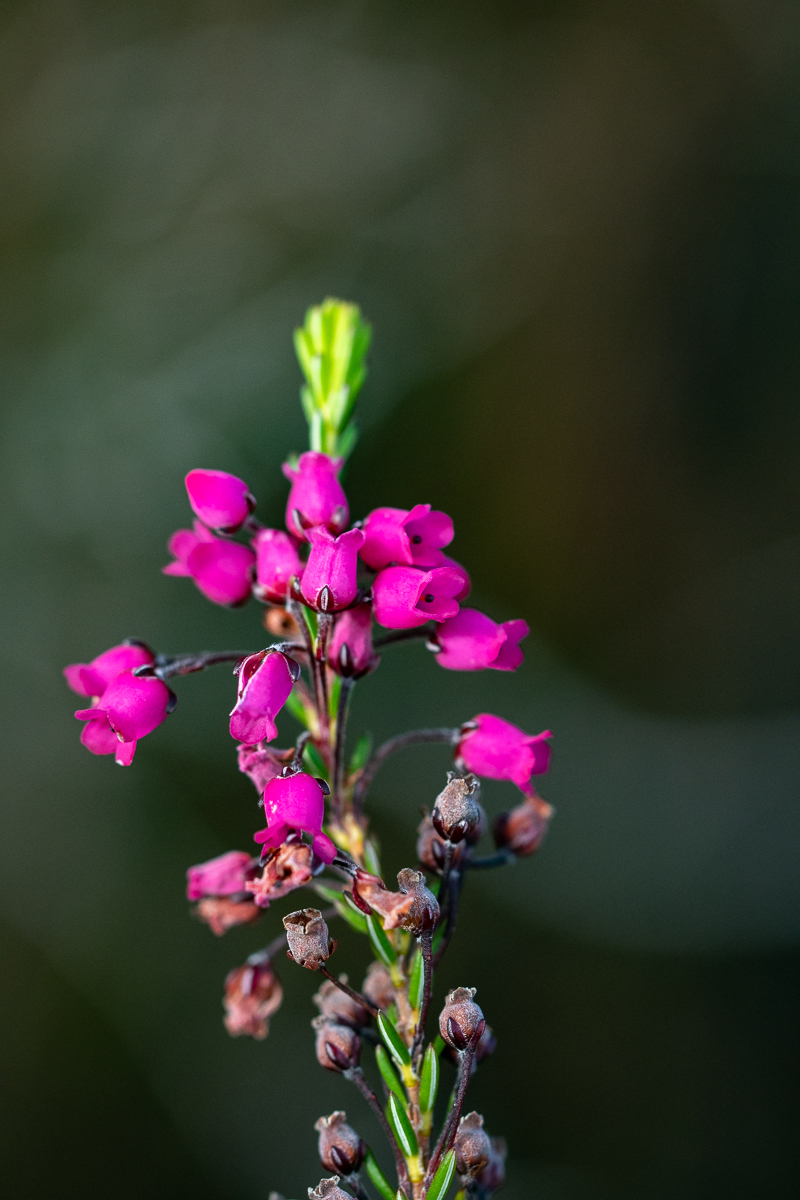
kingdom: Plantae
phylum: Tracheophyta
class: Magnoliopsida
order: Ericales
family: Ericaceae
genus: Erica
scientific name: Erica pulchella
